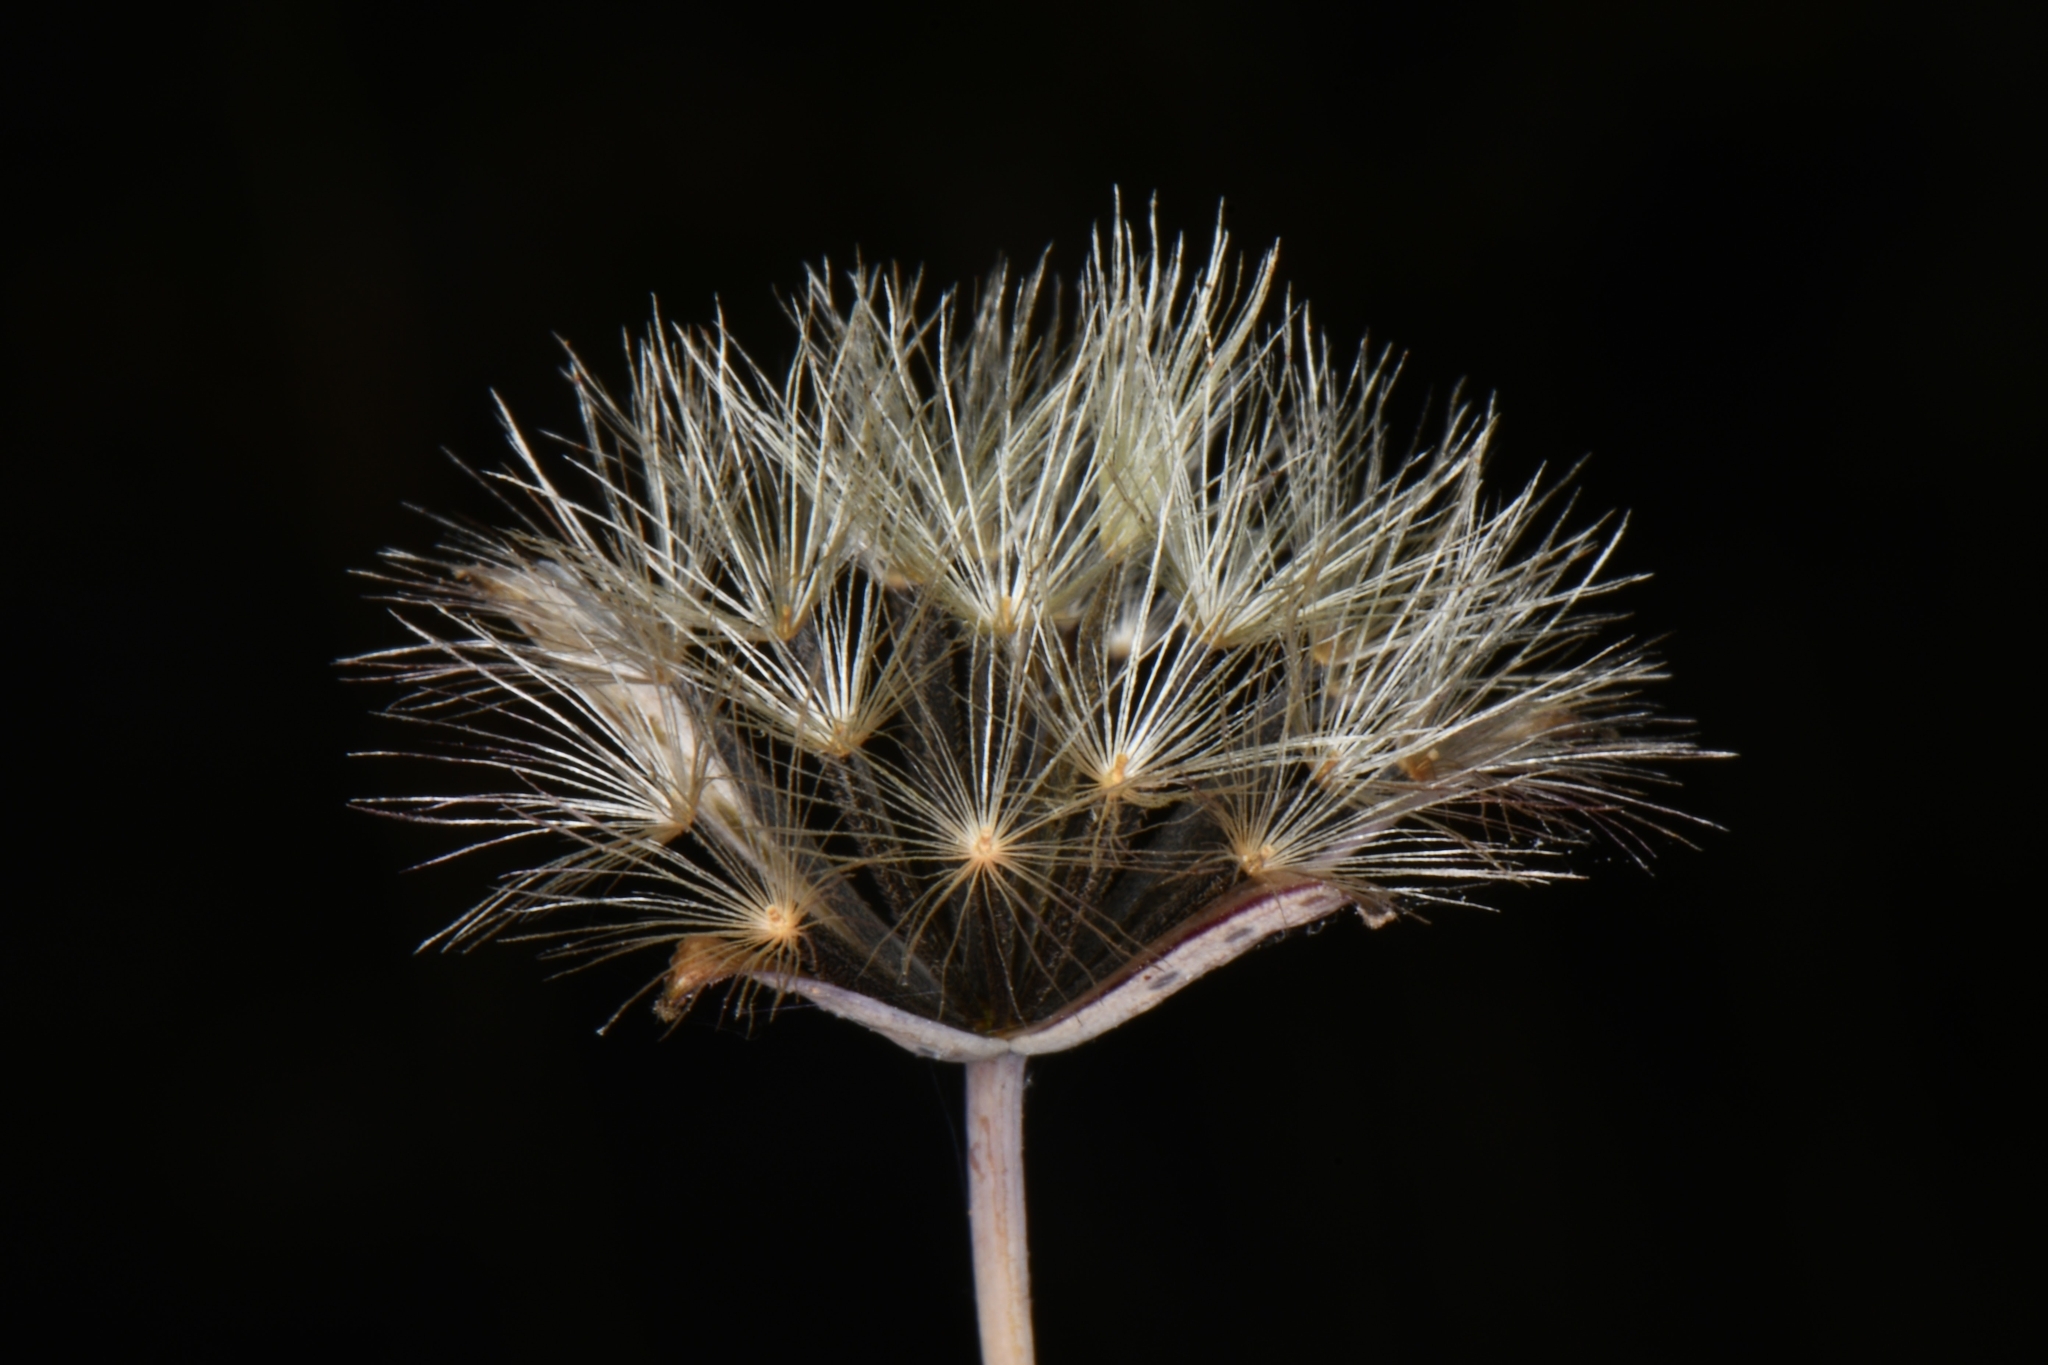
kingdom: Plantae
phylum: Tracheophyta
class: Magnoliopsida
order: Asterales
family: Asteraceae
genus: Porophyllum
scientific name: Porophyllum gracile
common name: Odora
